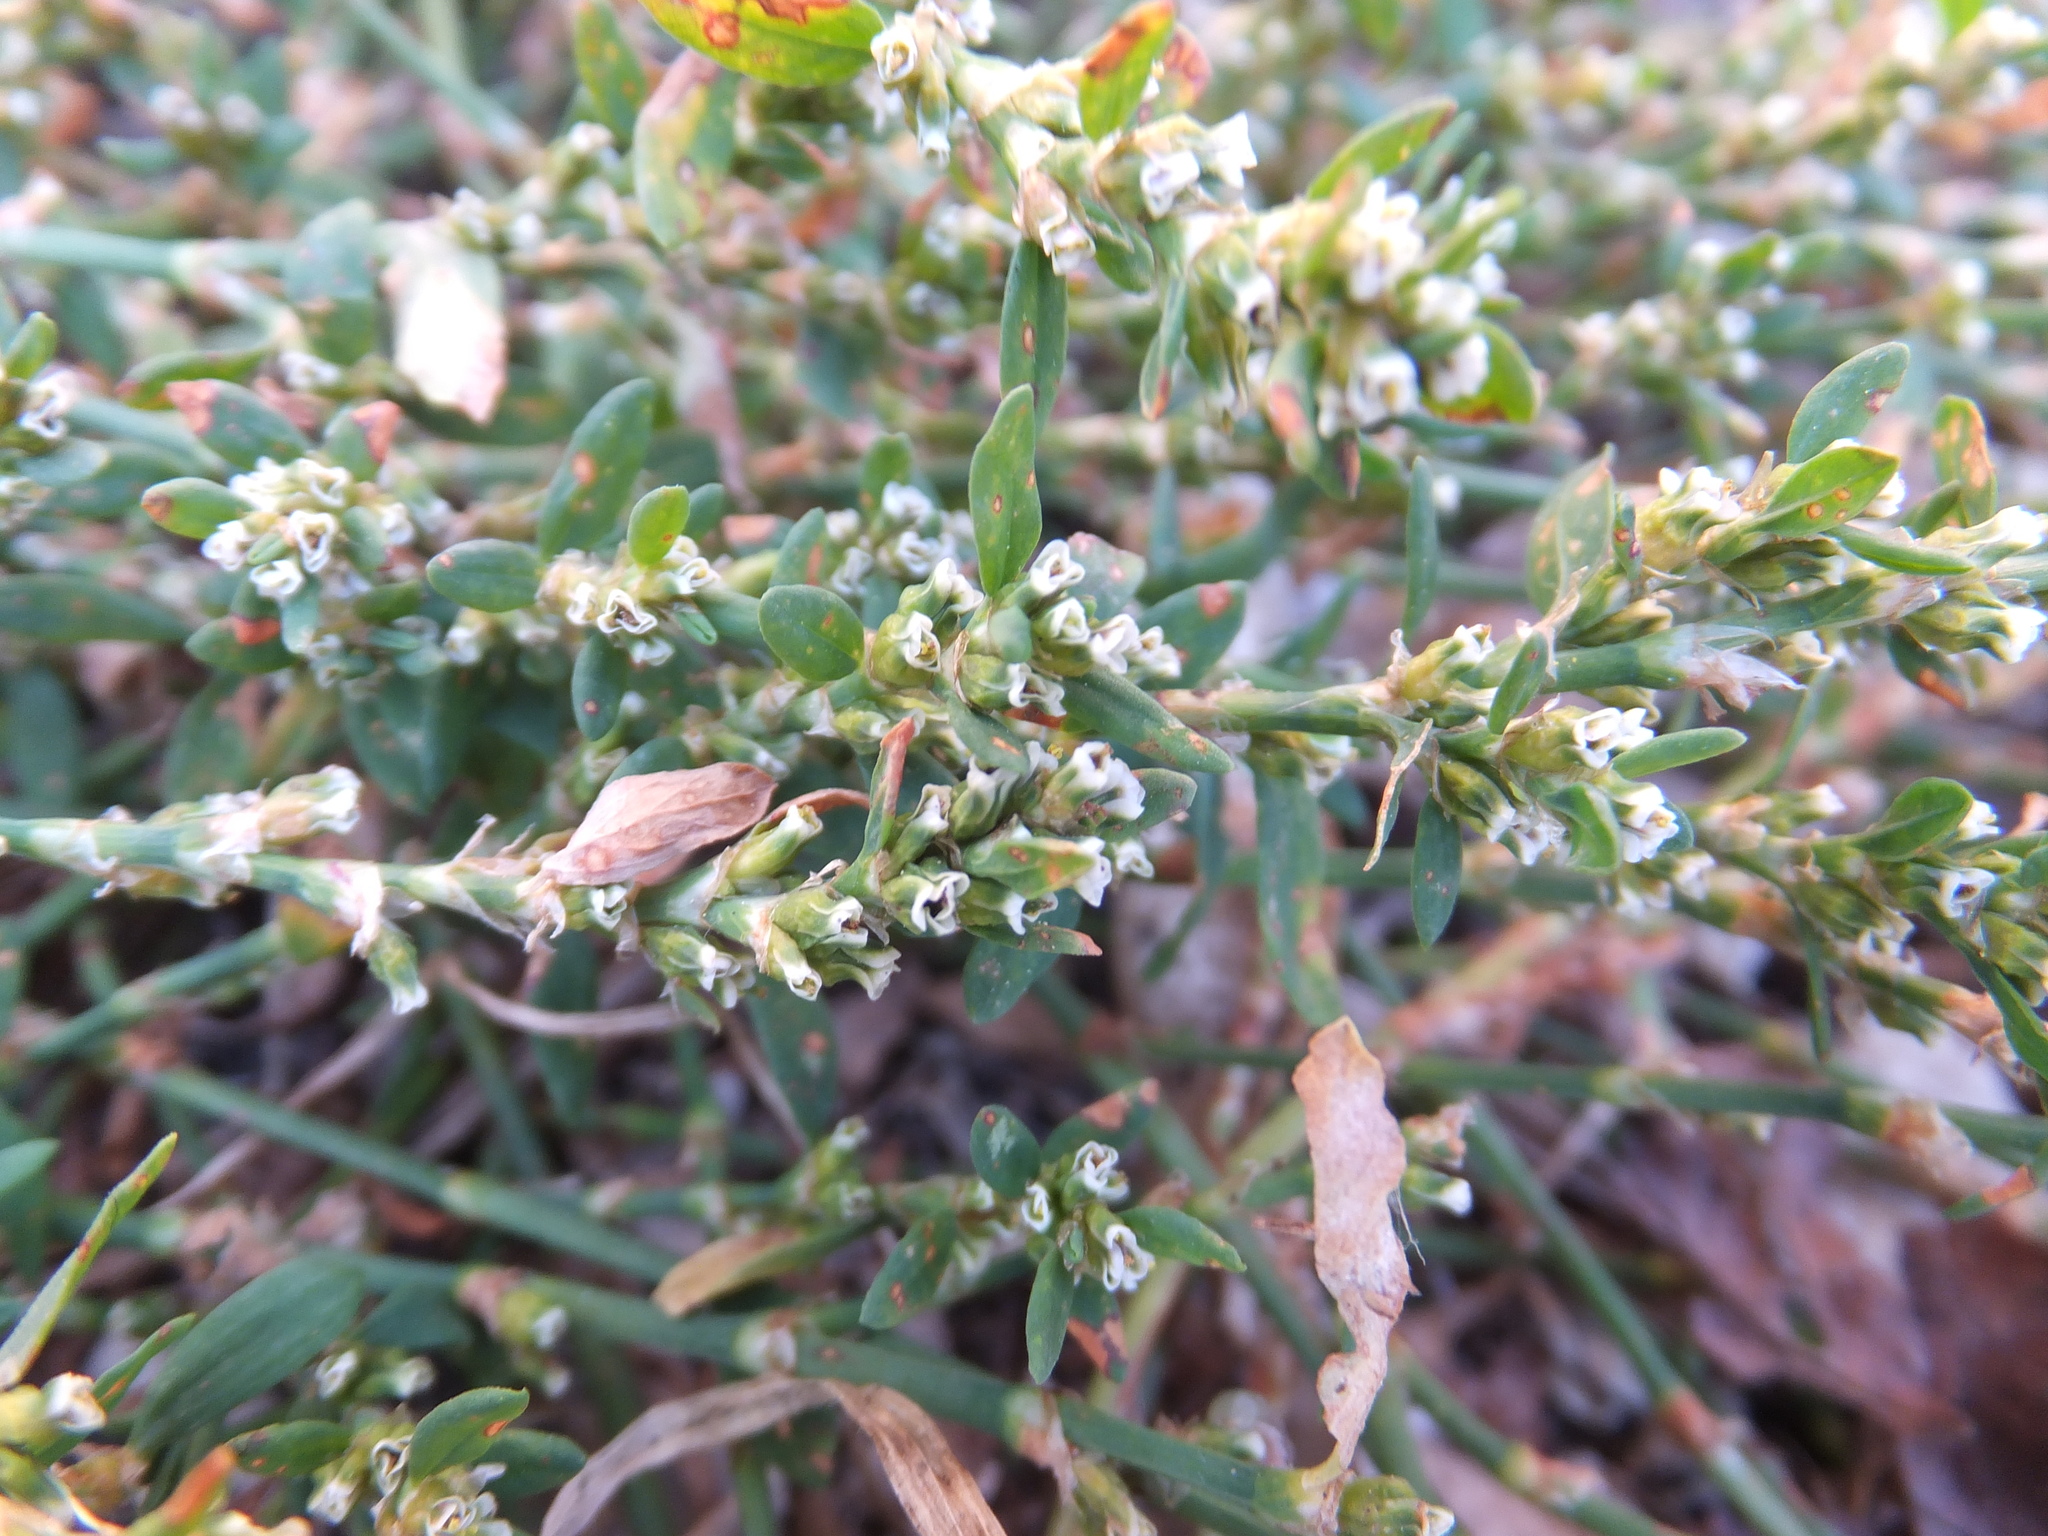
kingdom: Plantae
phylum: Tracheophyta
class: Magnoliopsida
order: Caryophyllales
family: Polygonaceae
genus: Polygonum
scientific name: Polygonum aviculare
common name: Prostrate knotweed
